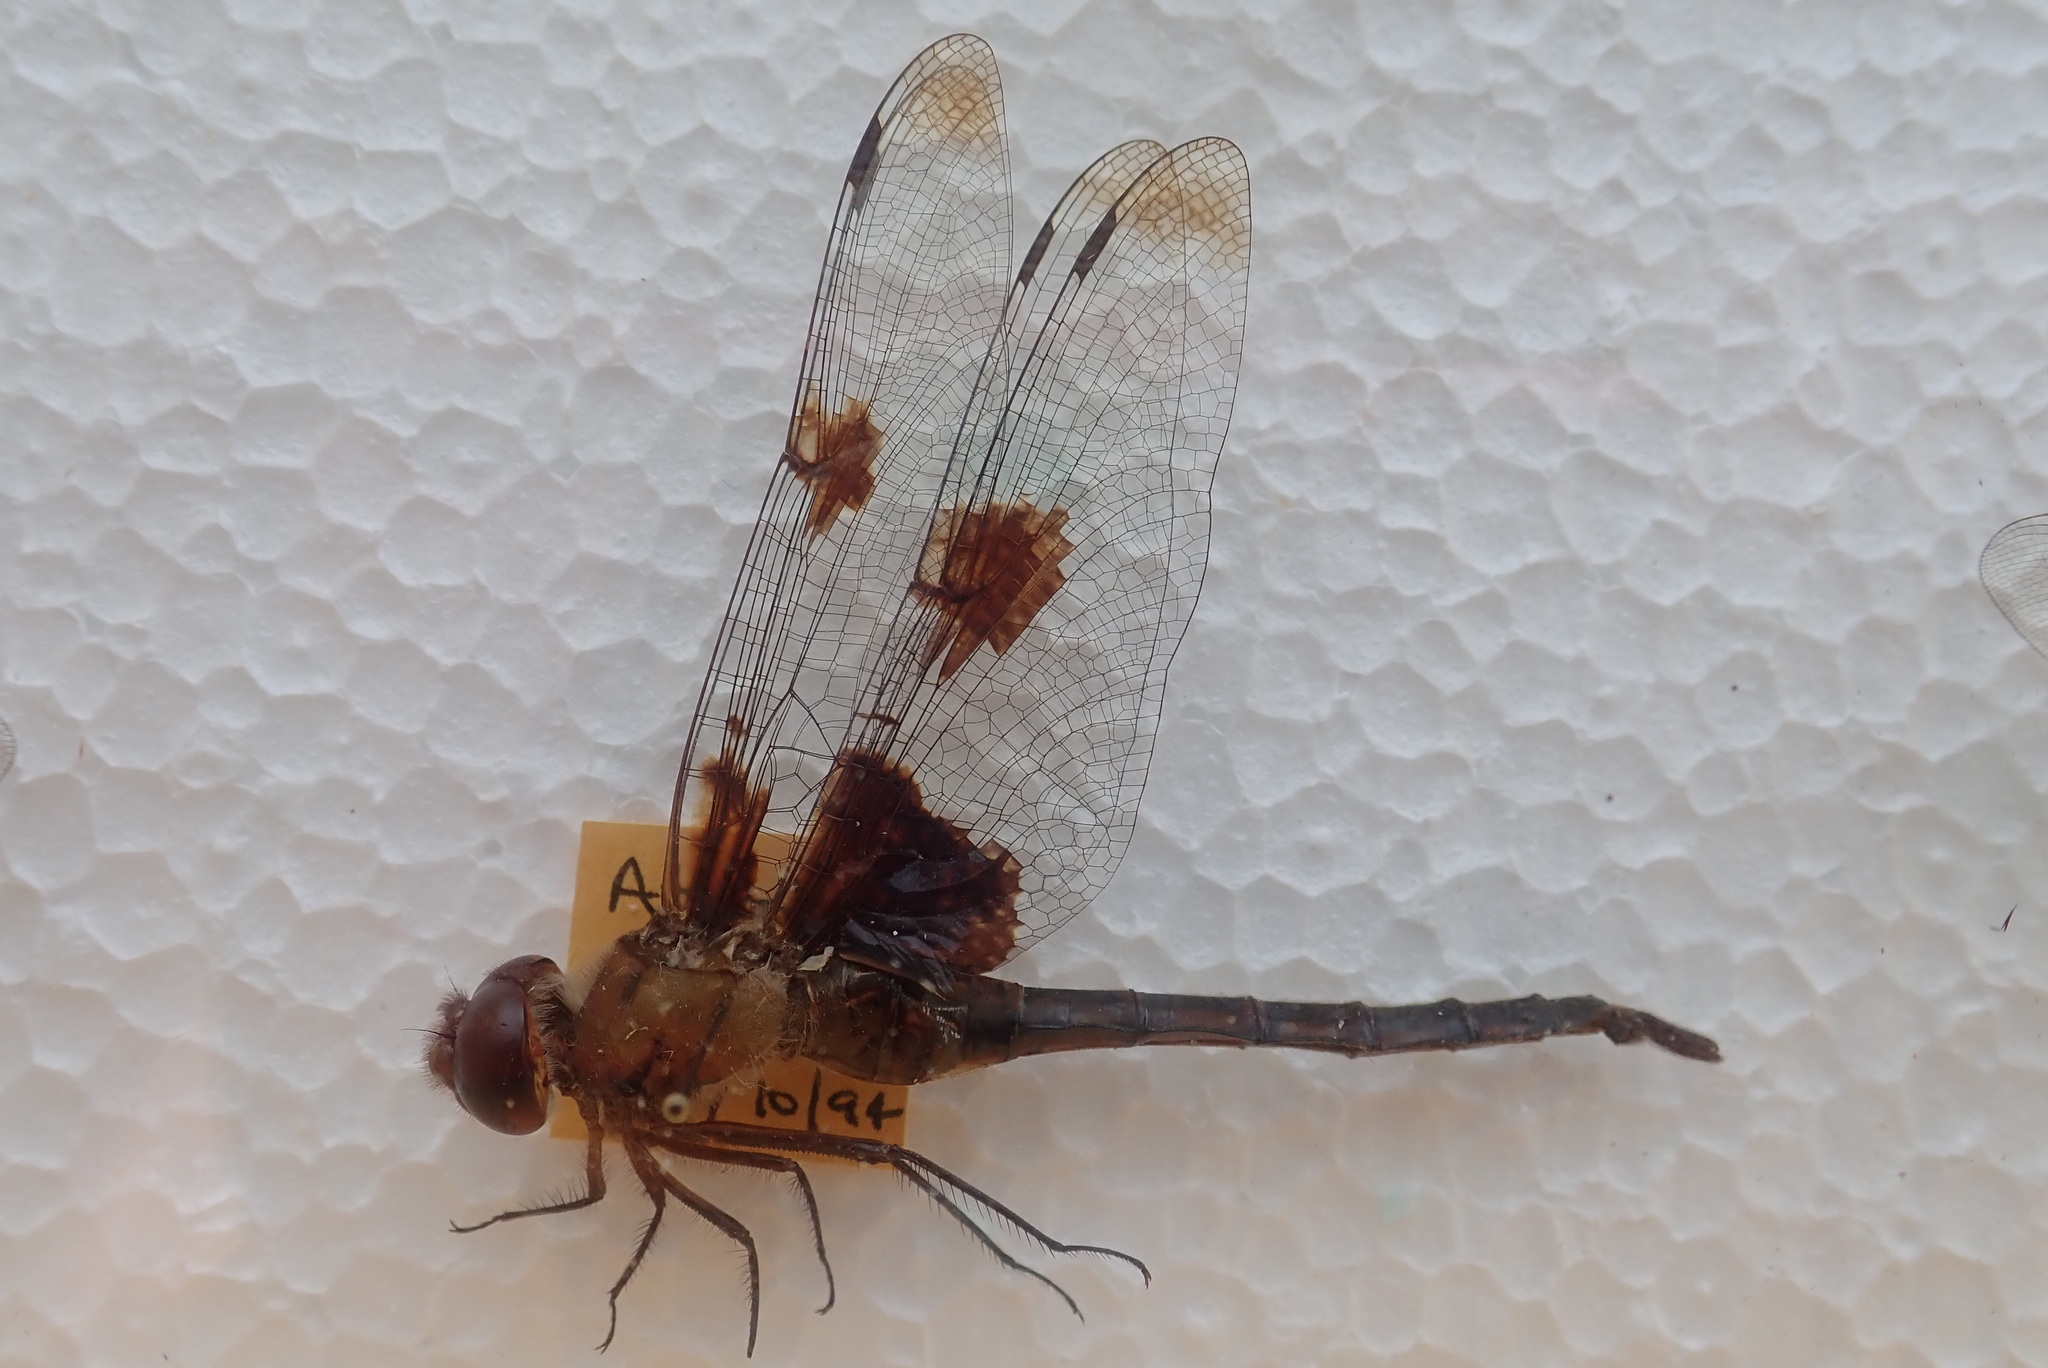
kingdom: Animalia
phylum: Arthropoda
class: Insecta
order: Odonata
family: Corduliidae
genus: Epitheca
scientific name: Epitheca princeps
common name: Prince baskettail
